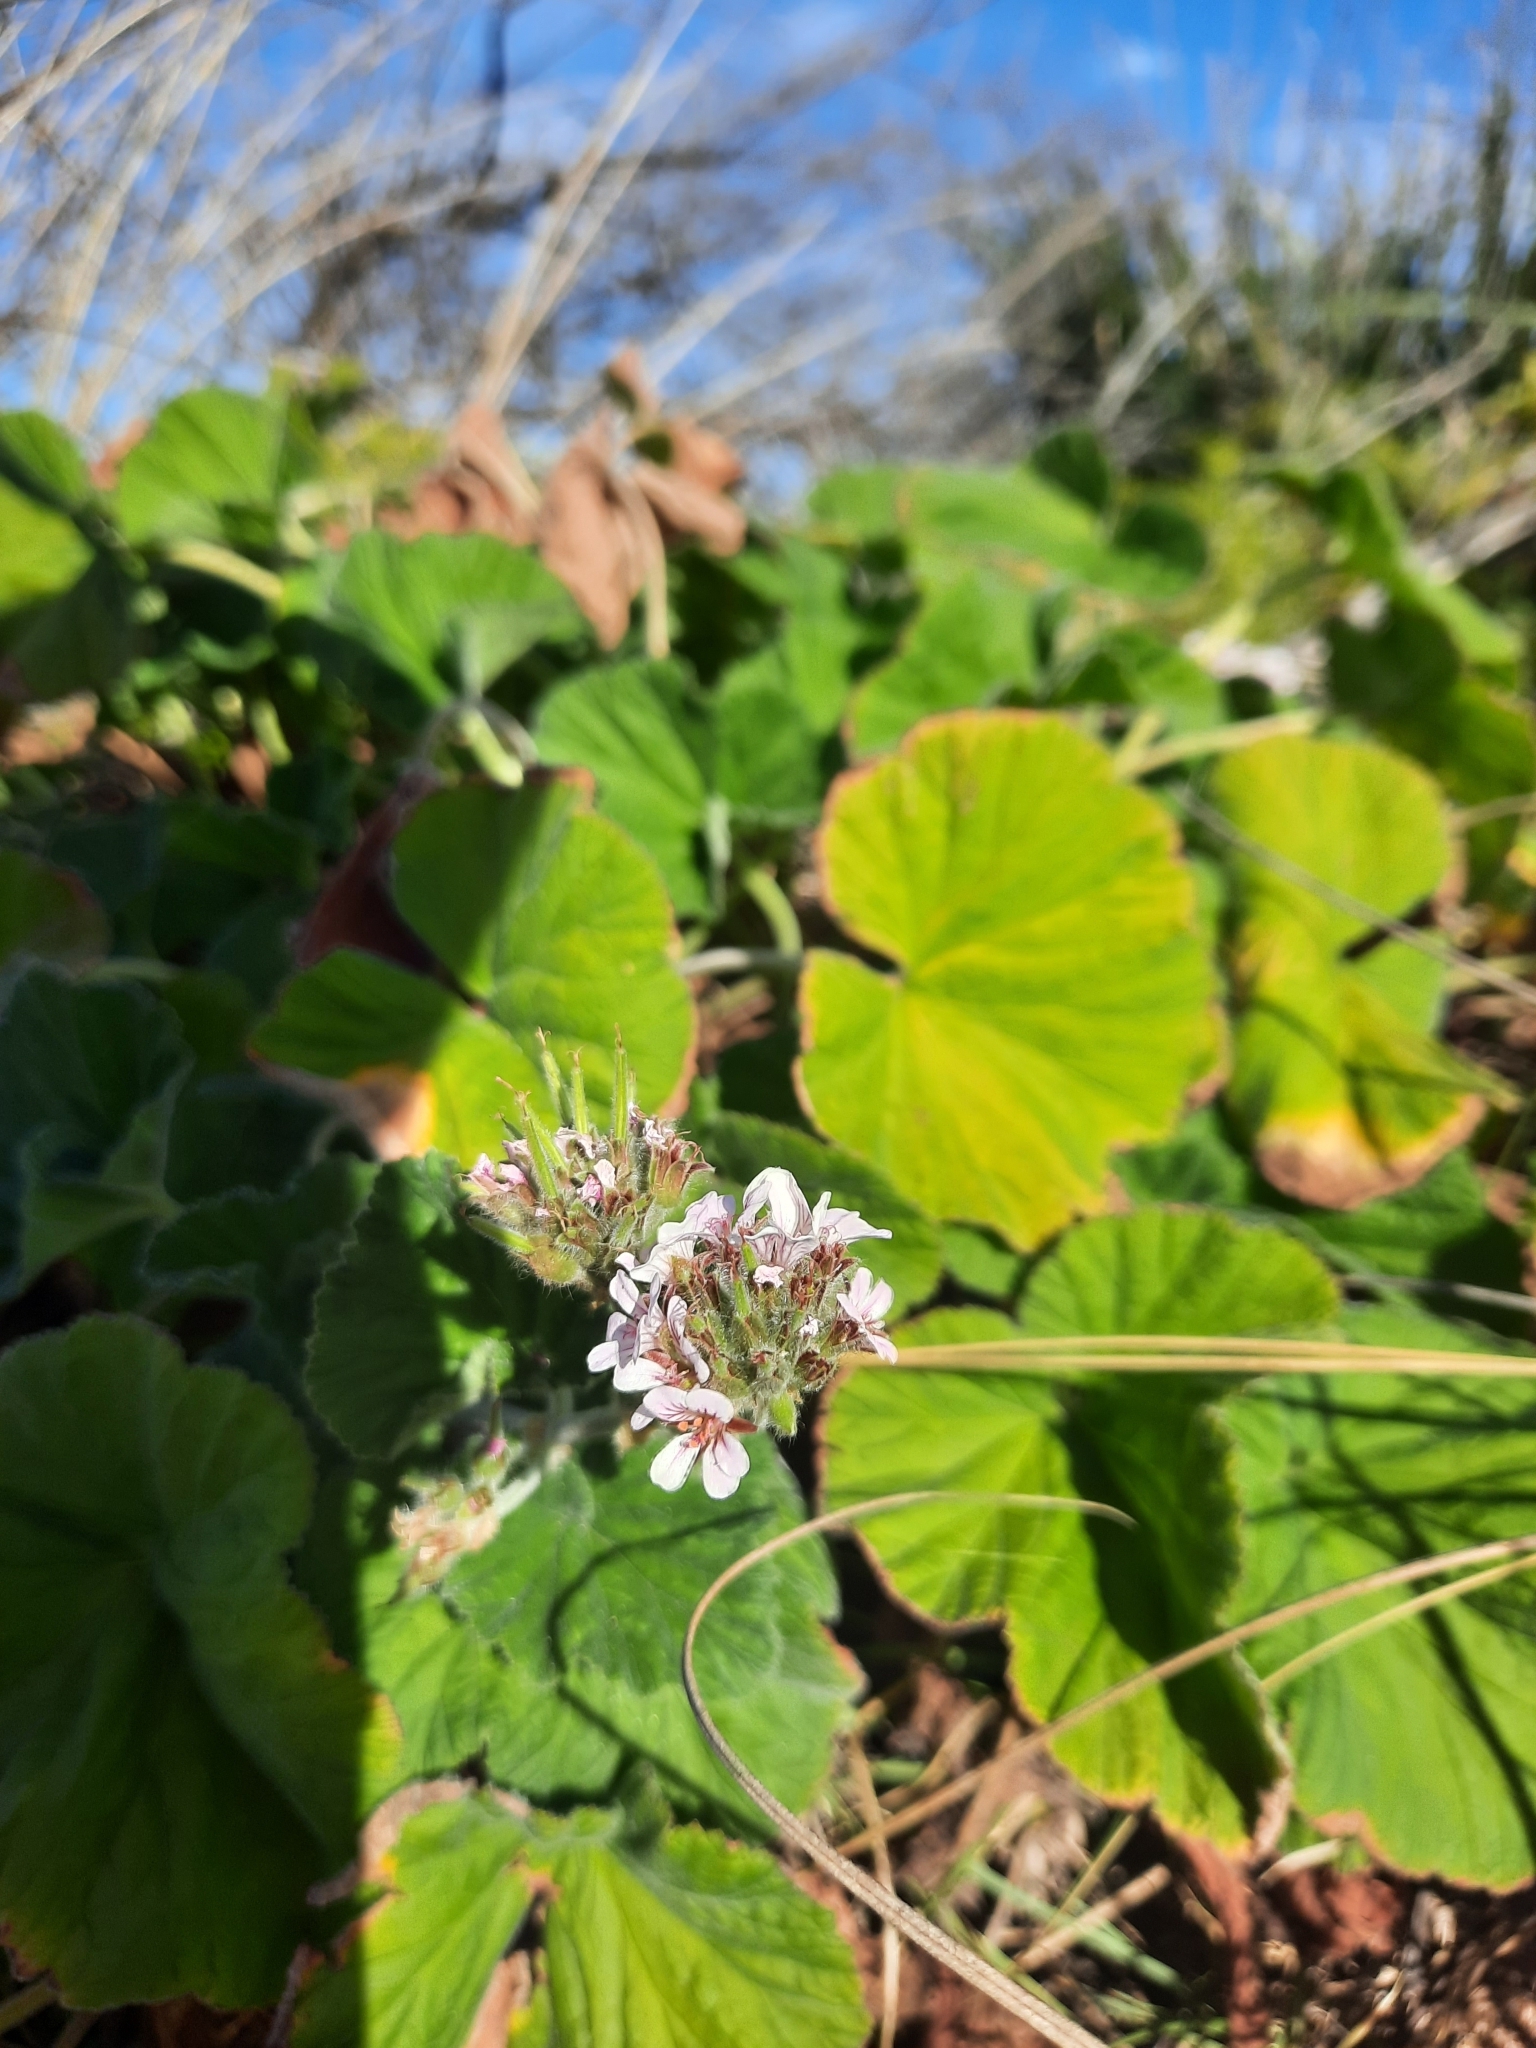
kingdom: Plantae
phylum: Tracheophyta
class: Magnoliopsida
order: Geraniales
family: Geraniaceae
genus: Pelargonium
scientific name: Pelargonium australe
